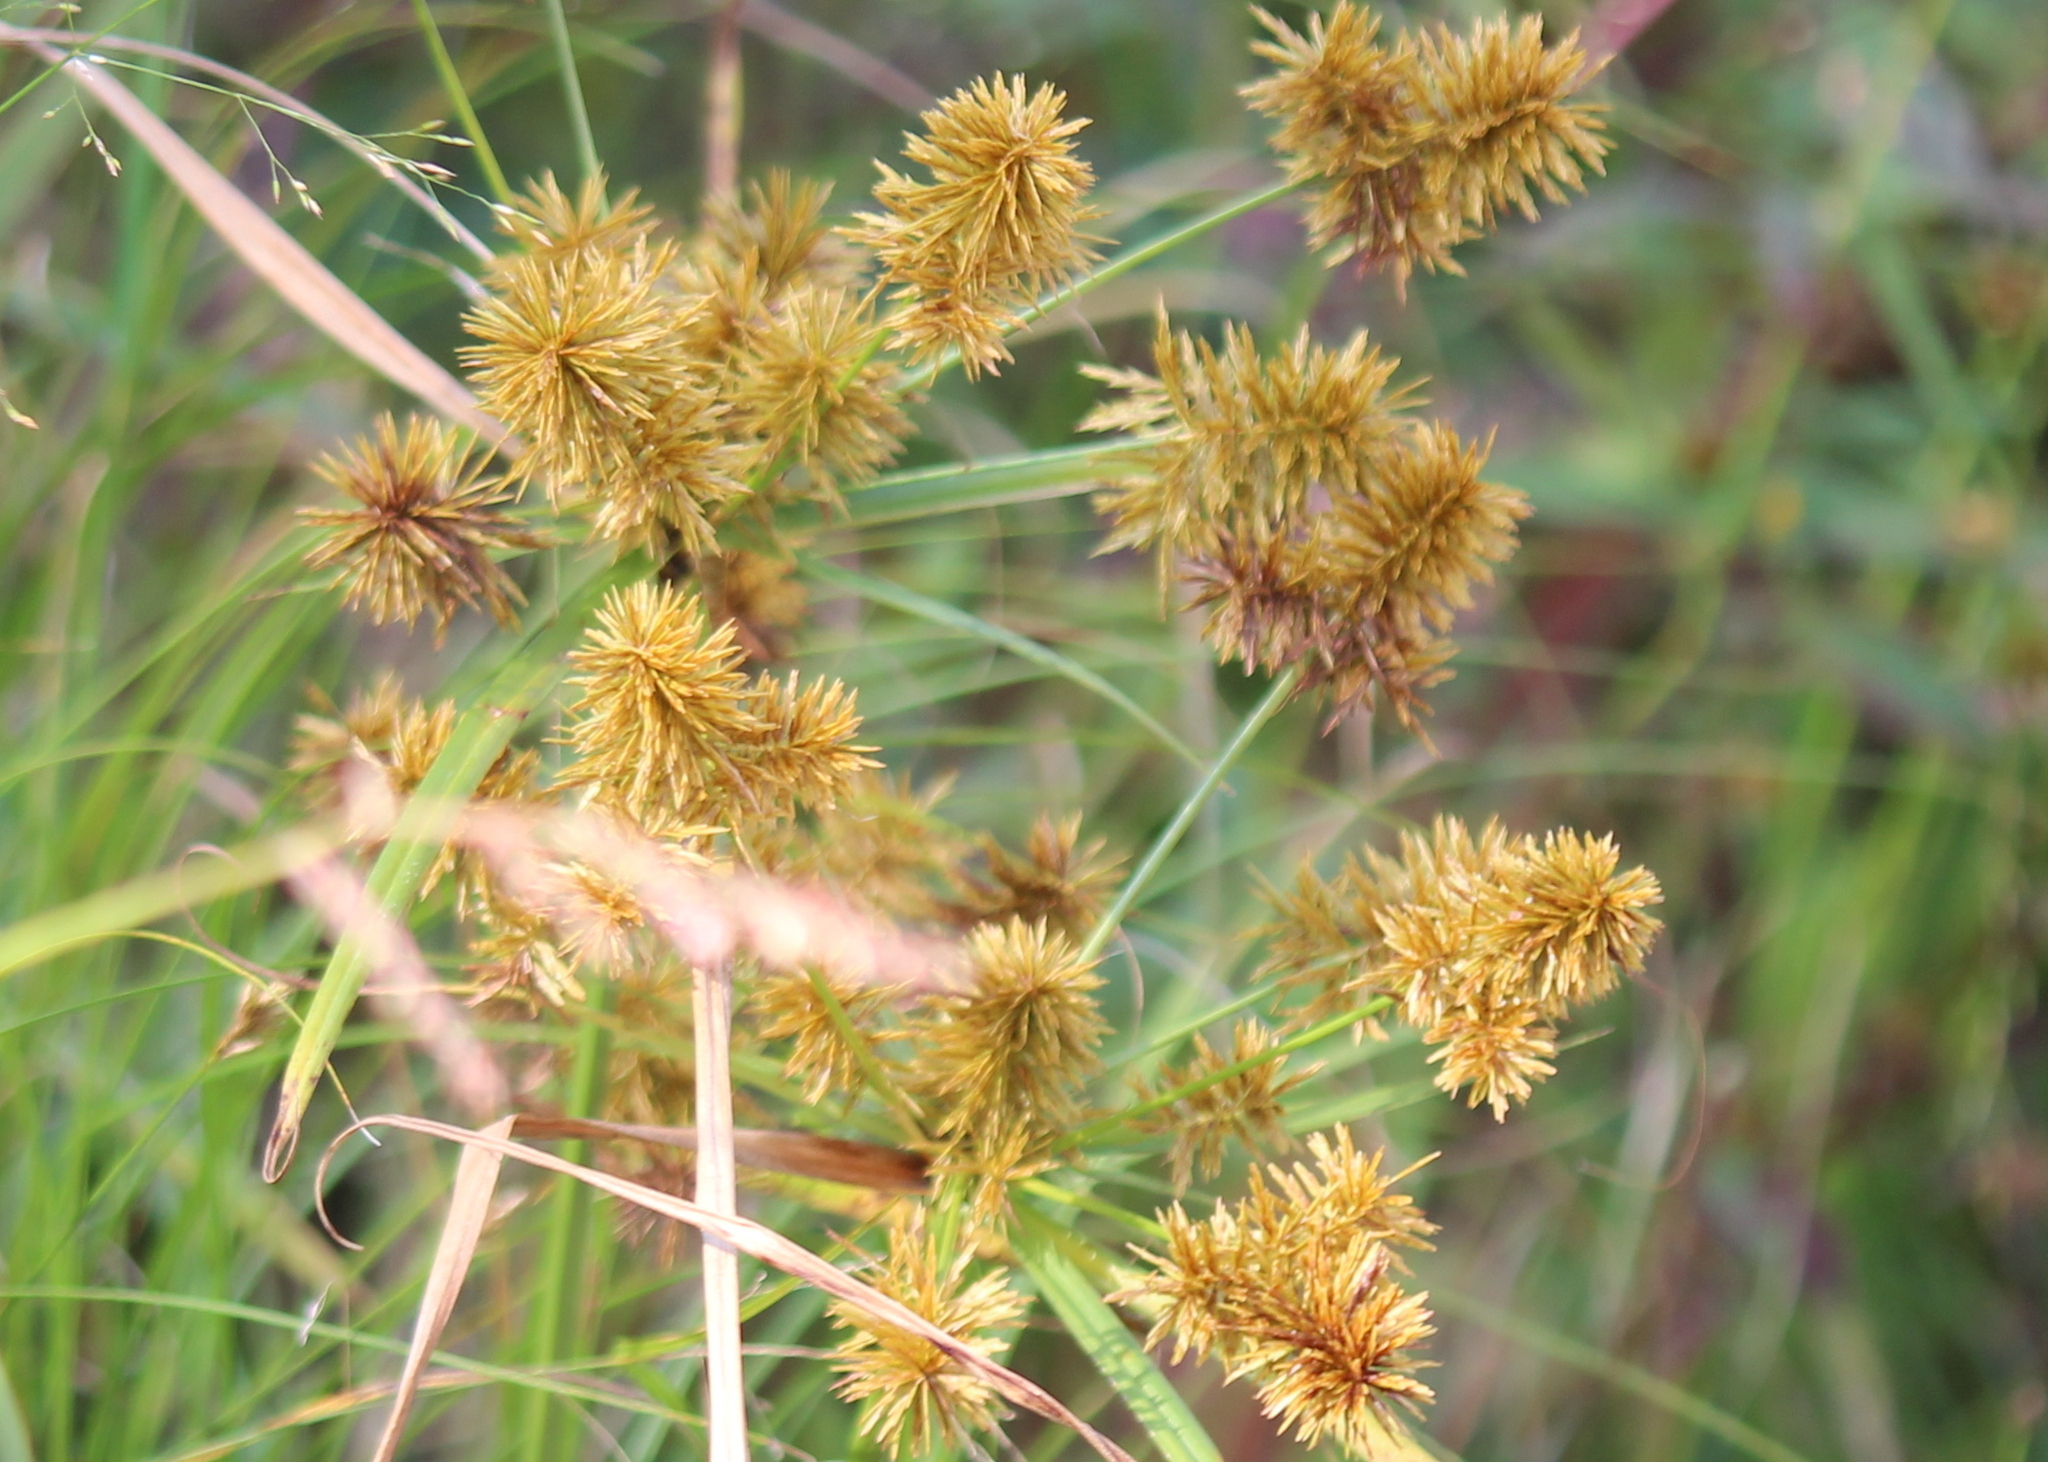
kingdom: Plantae
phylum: Tracheophyta
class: Liliopsida
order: Poales
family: Cyperaceae
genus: Cyperus
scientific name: Cyperus strigosus
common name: False nutsedge
